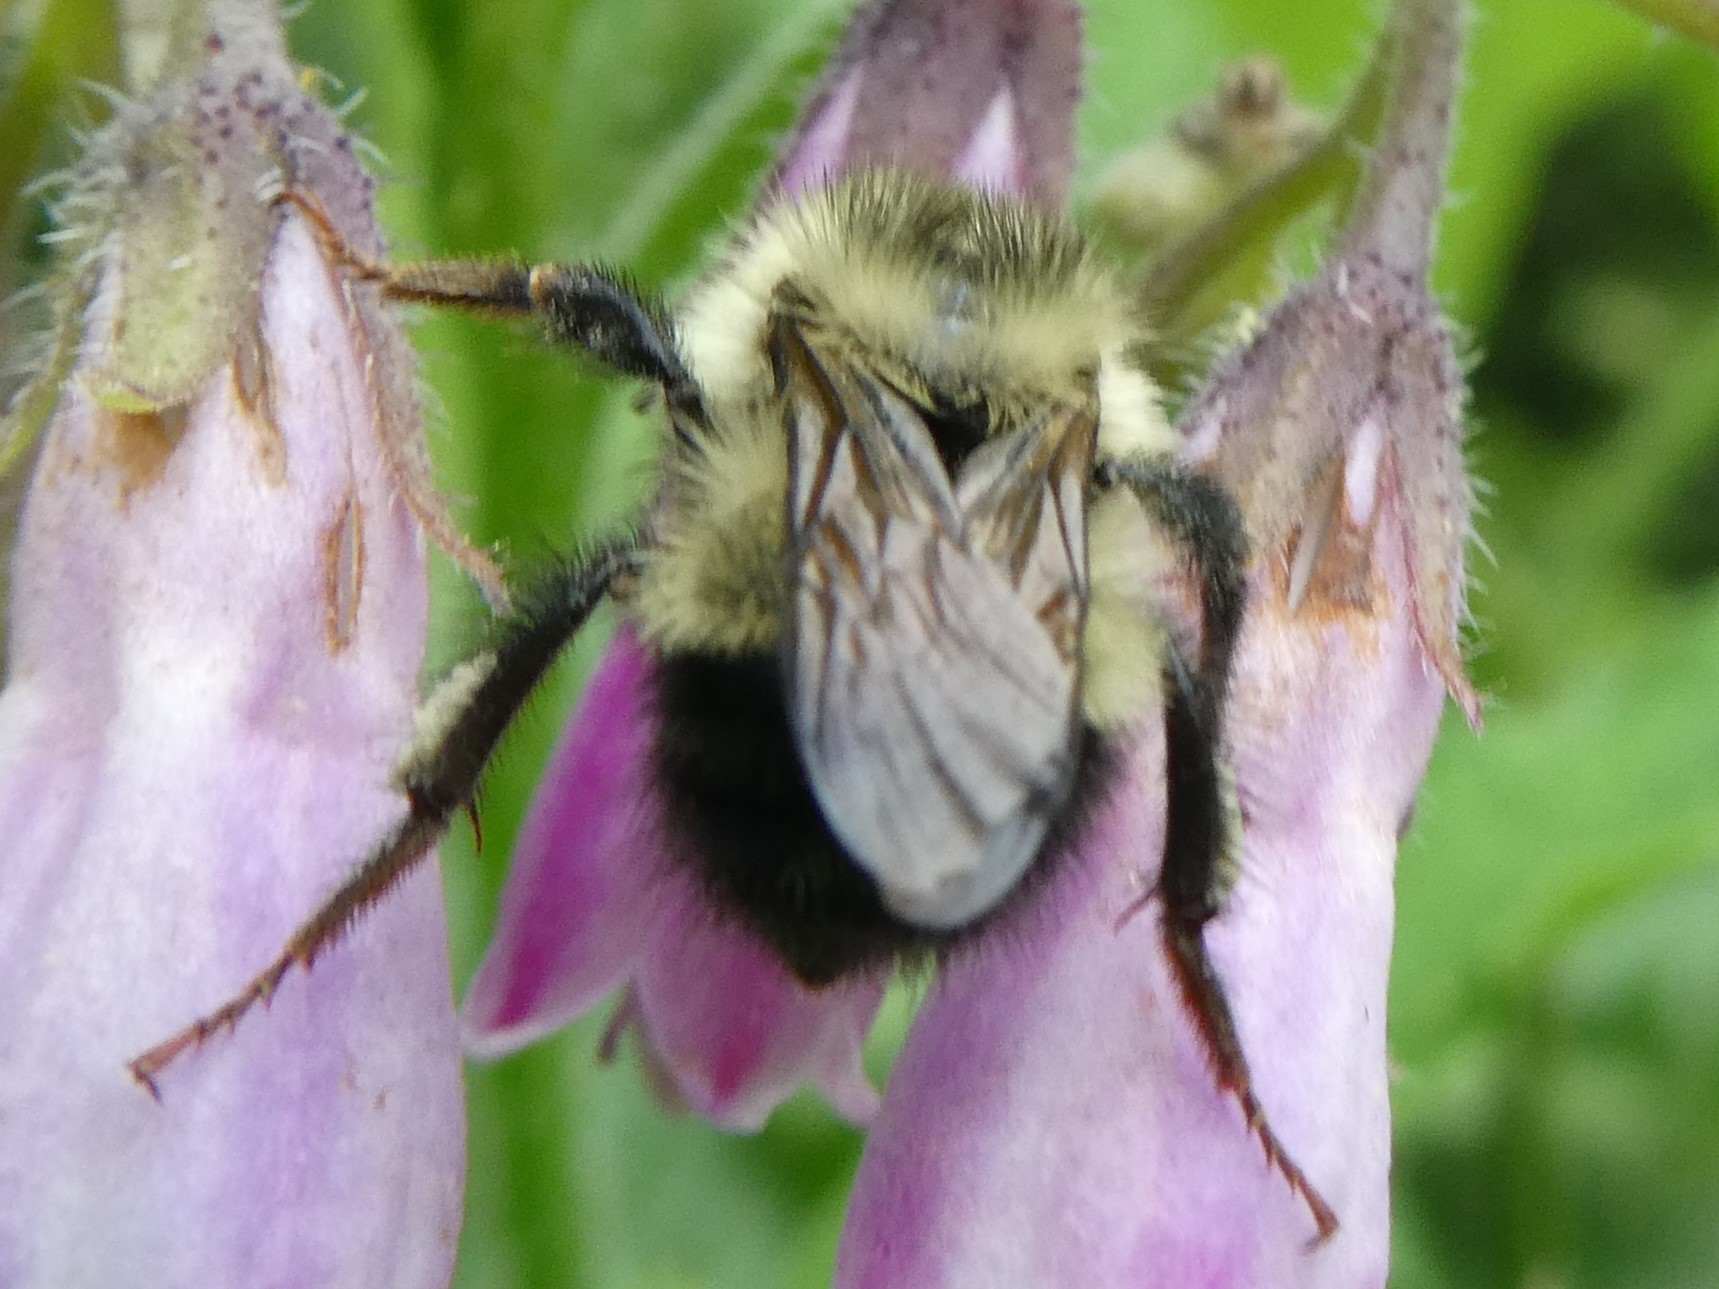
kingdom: Animalia
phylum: Arthropoda
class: Insecta
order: Hymenoptera
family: Apidae
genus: Pyrobombus
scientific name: Pyrobombus
